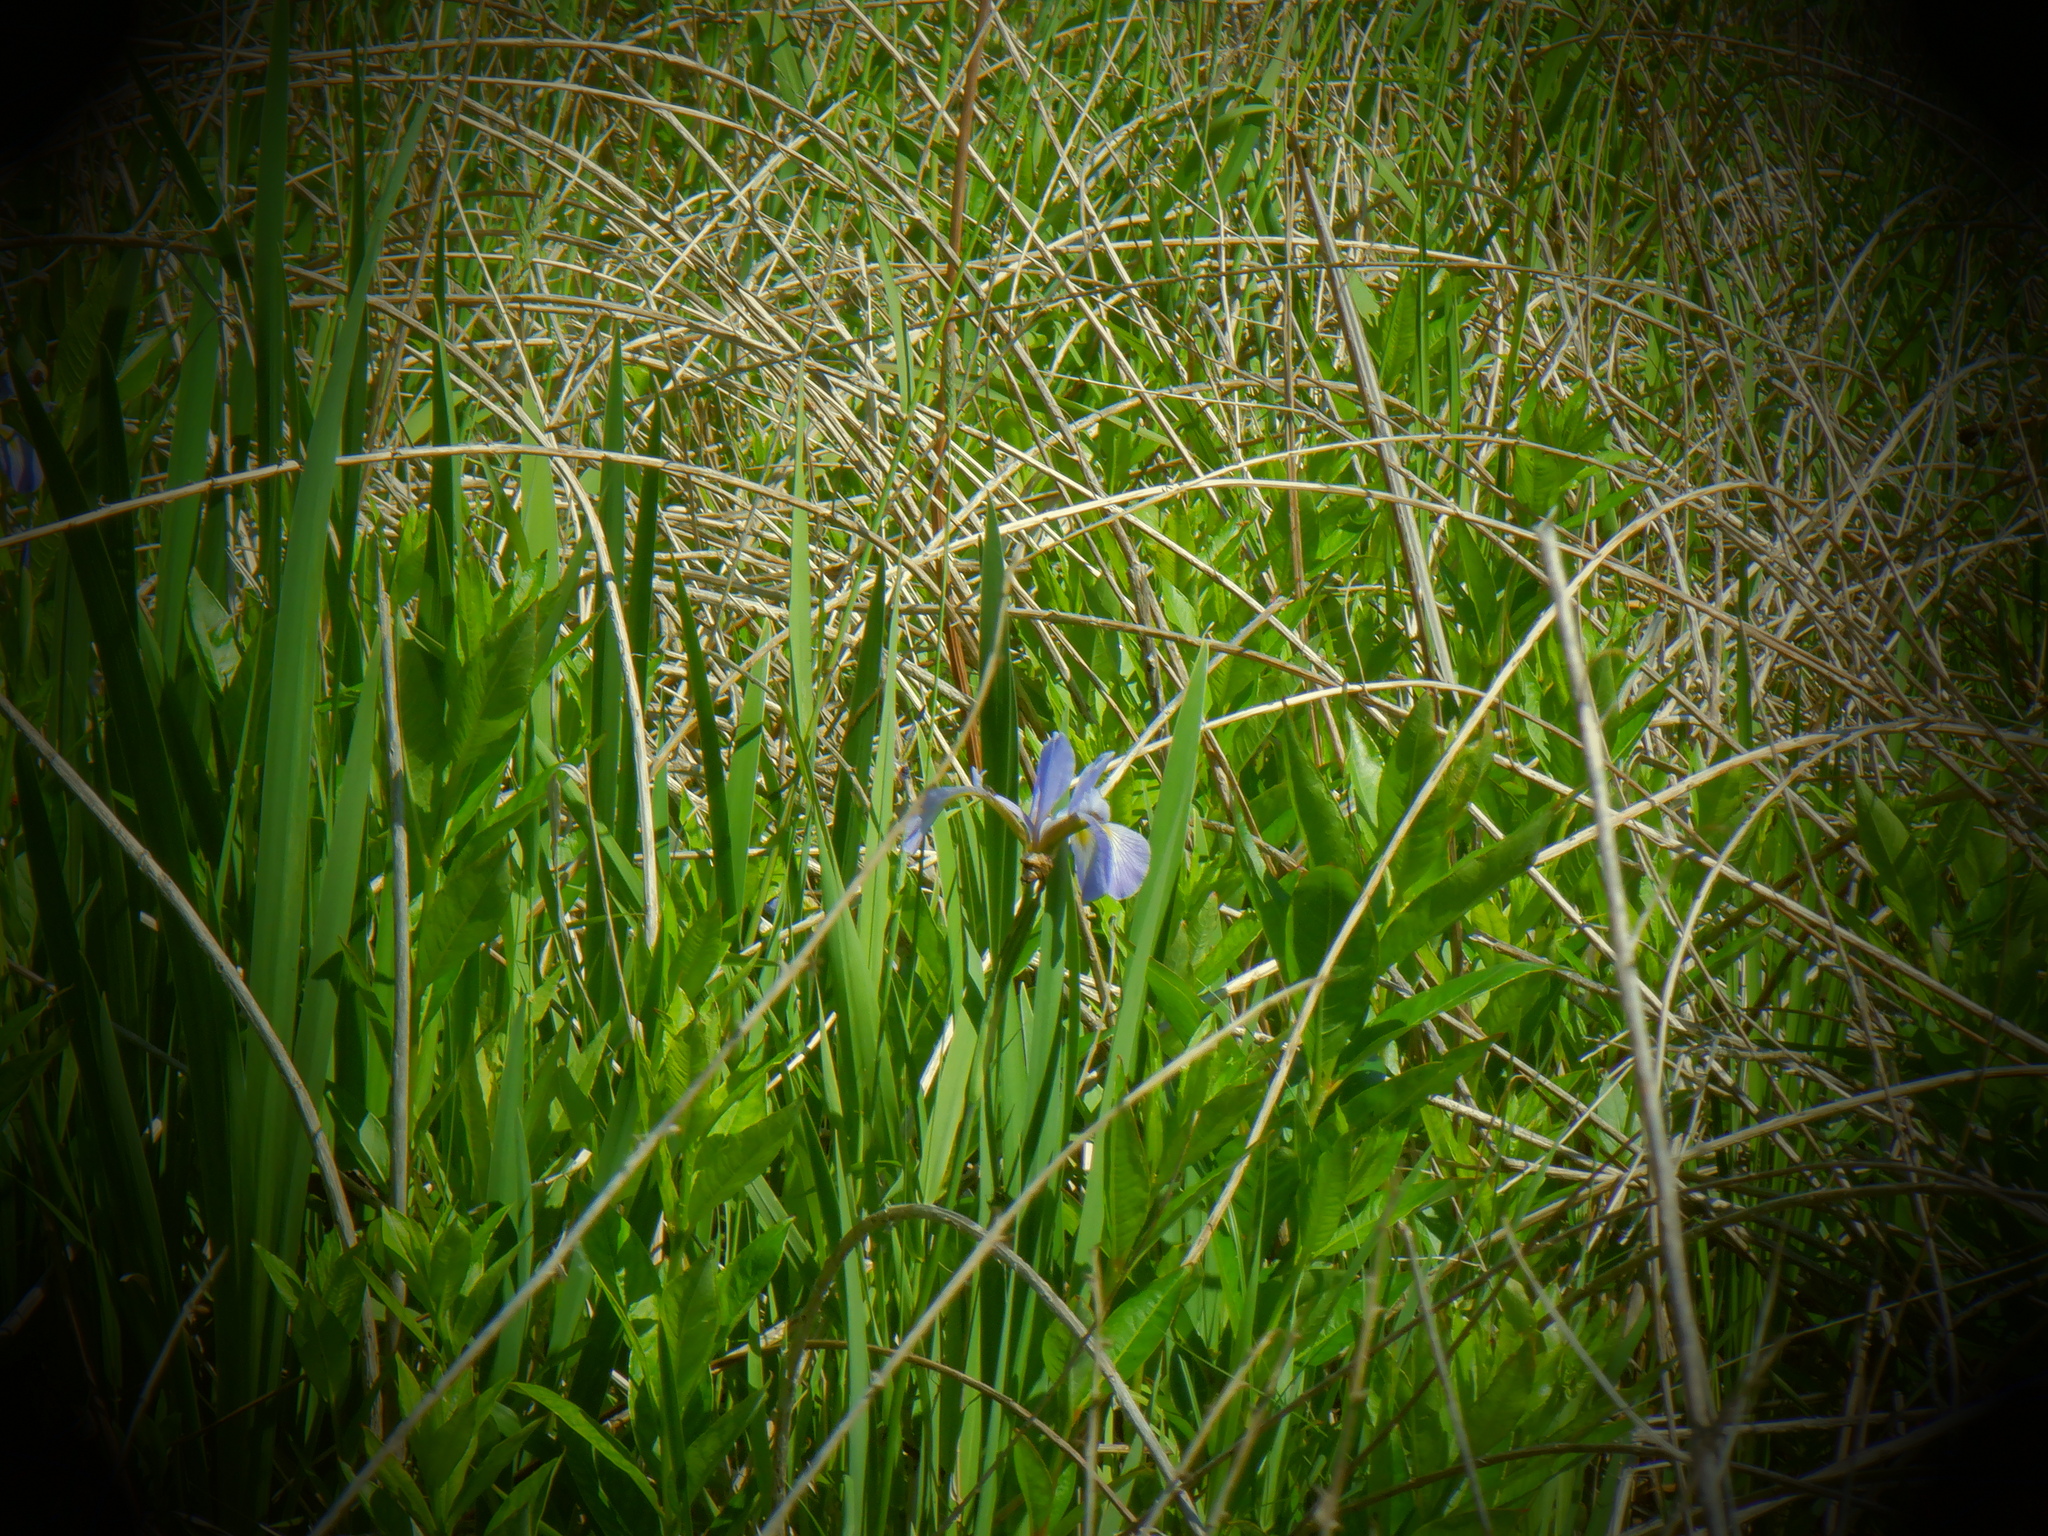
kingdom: Plantae
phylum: Tracheophyta
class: Liliopsida
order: Asparagales
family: Iridaceae
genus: Iris
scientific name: Iris virginica
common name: Southern blue flag
